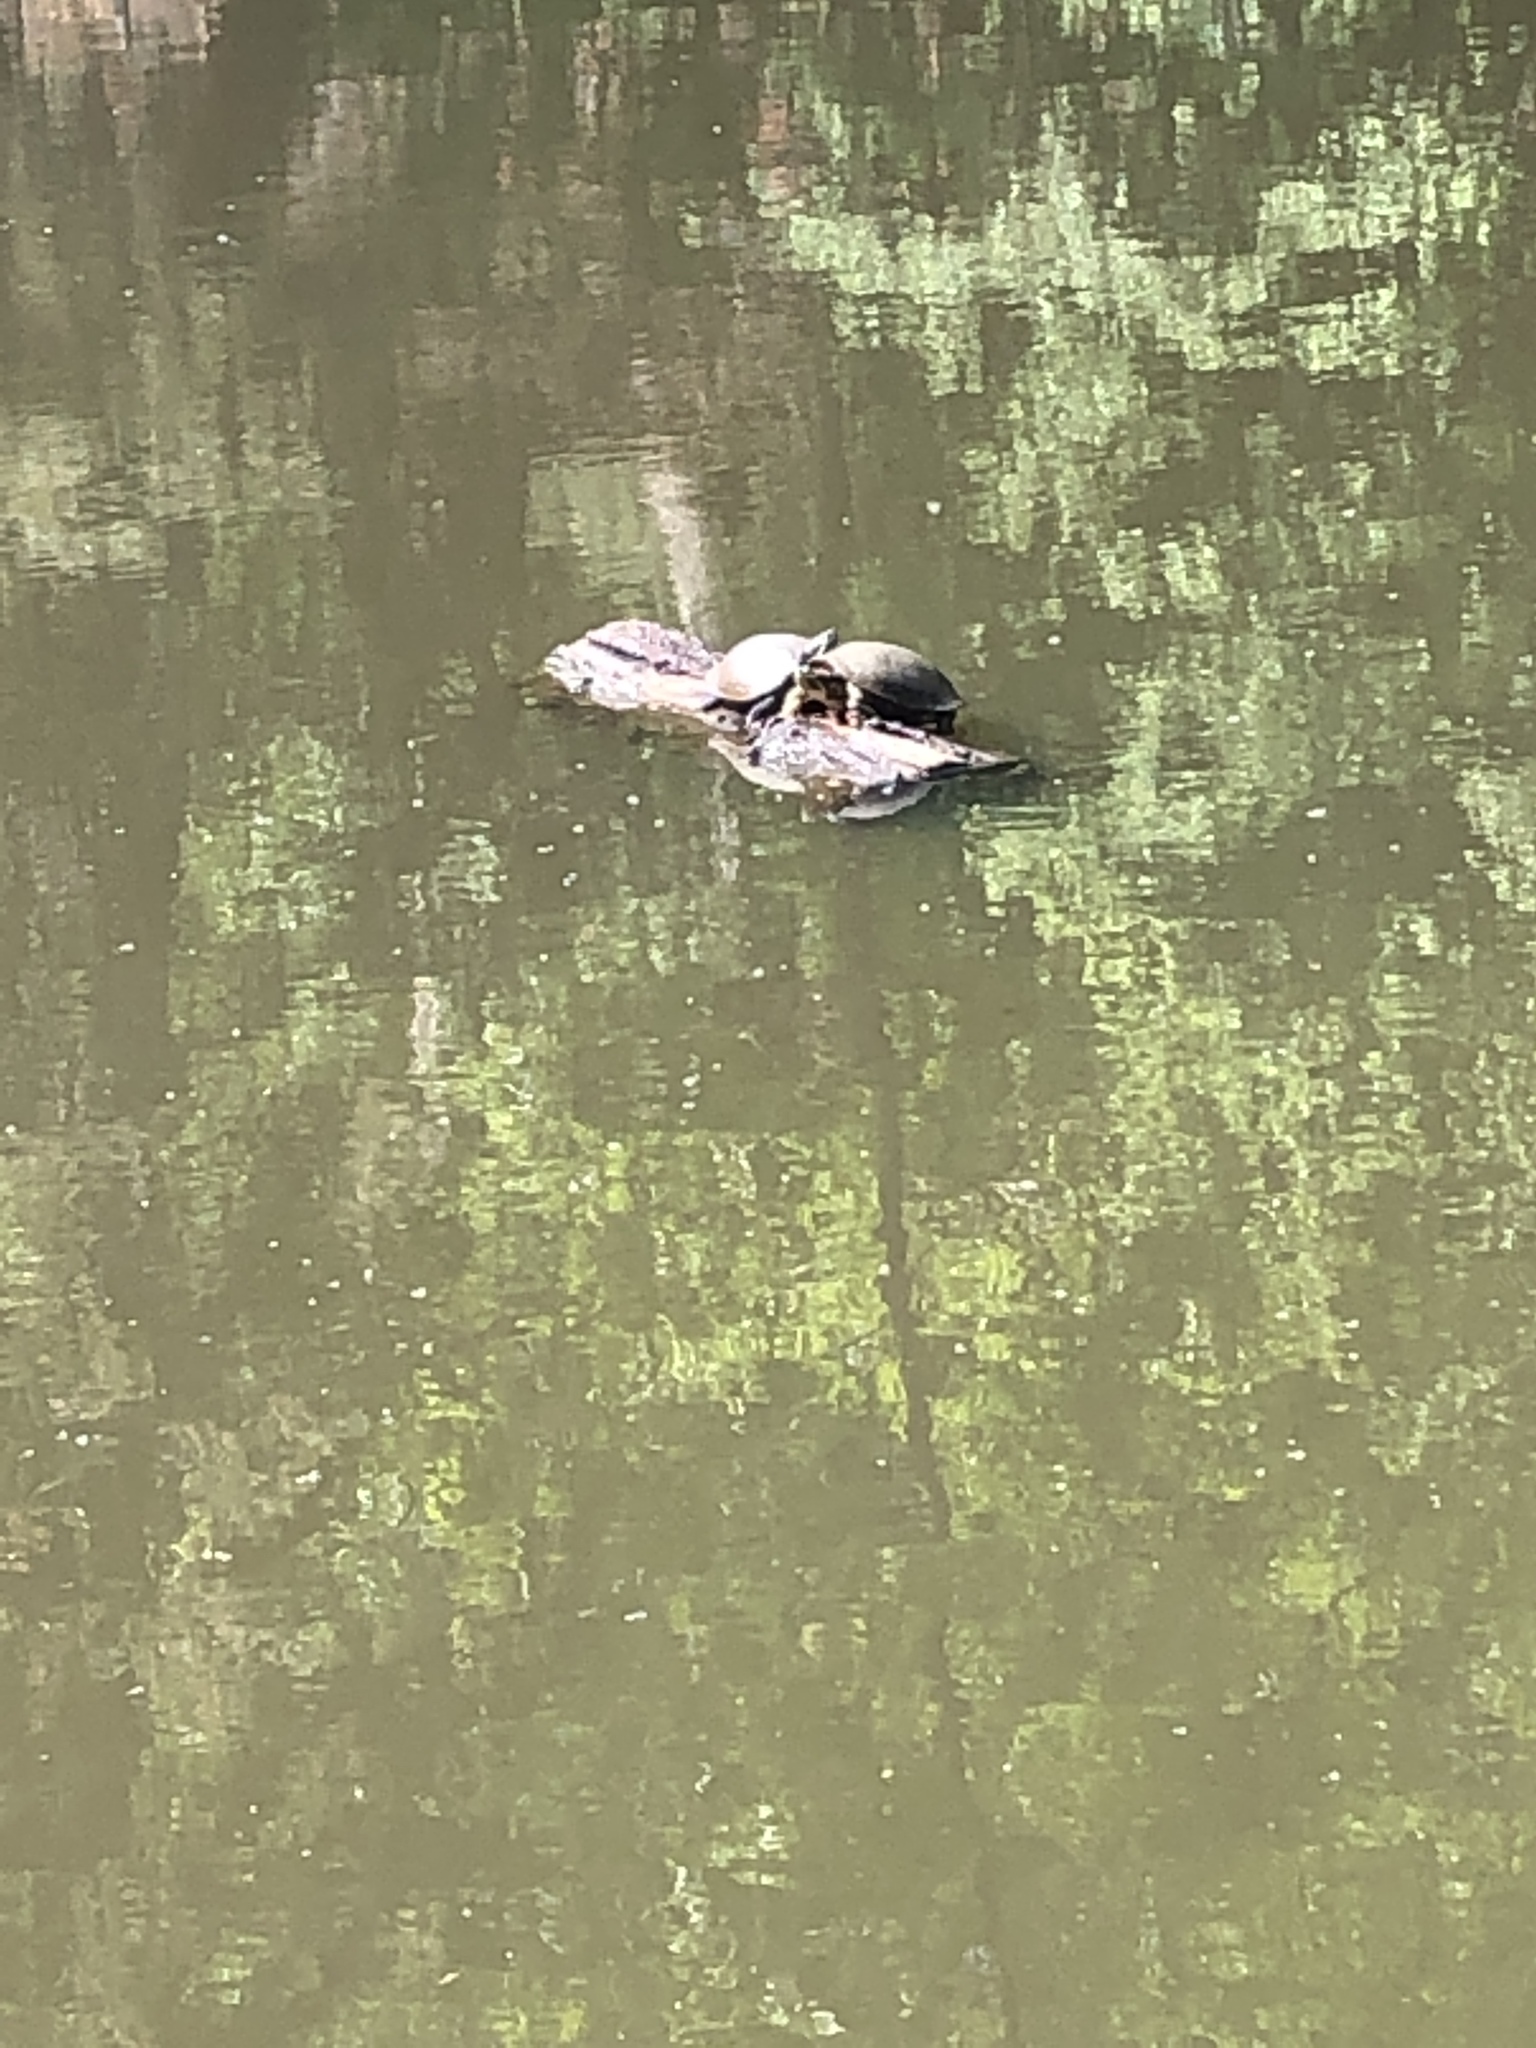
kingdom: Animalia
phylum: Chordata
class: Testudines
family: Emydidae
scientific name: Emydidae
